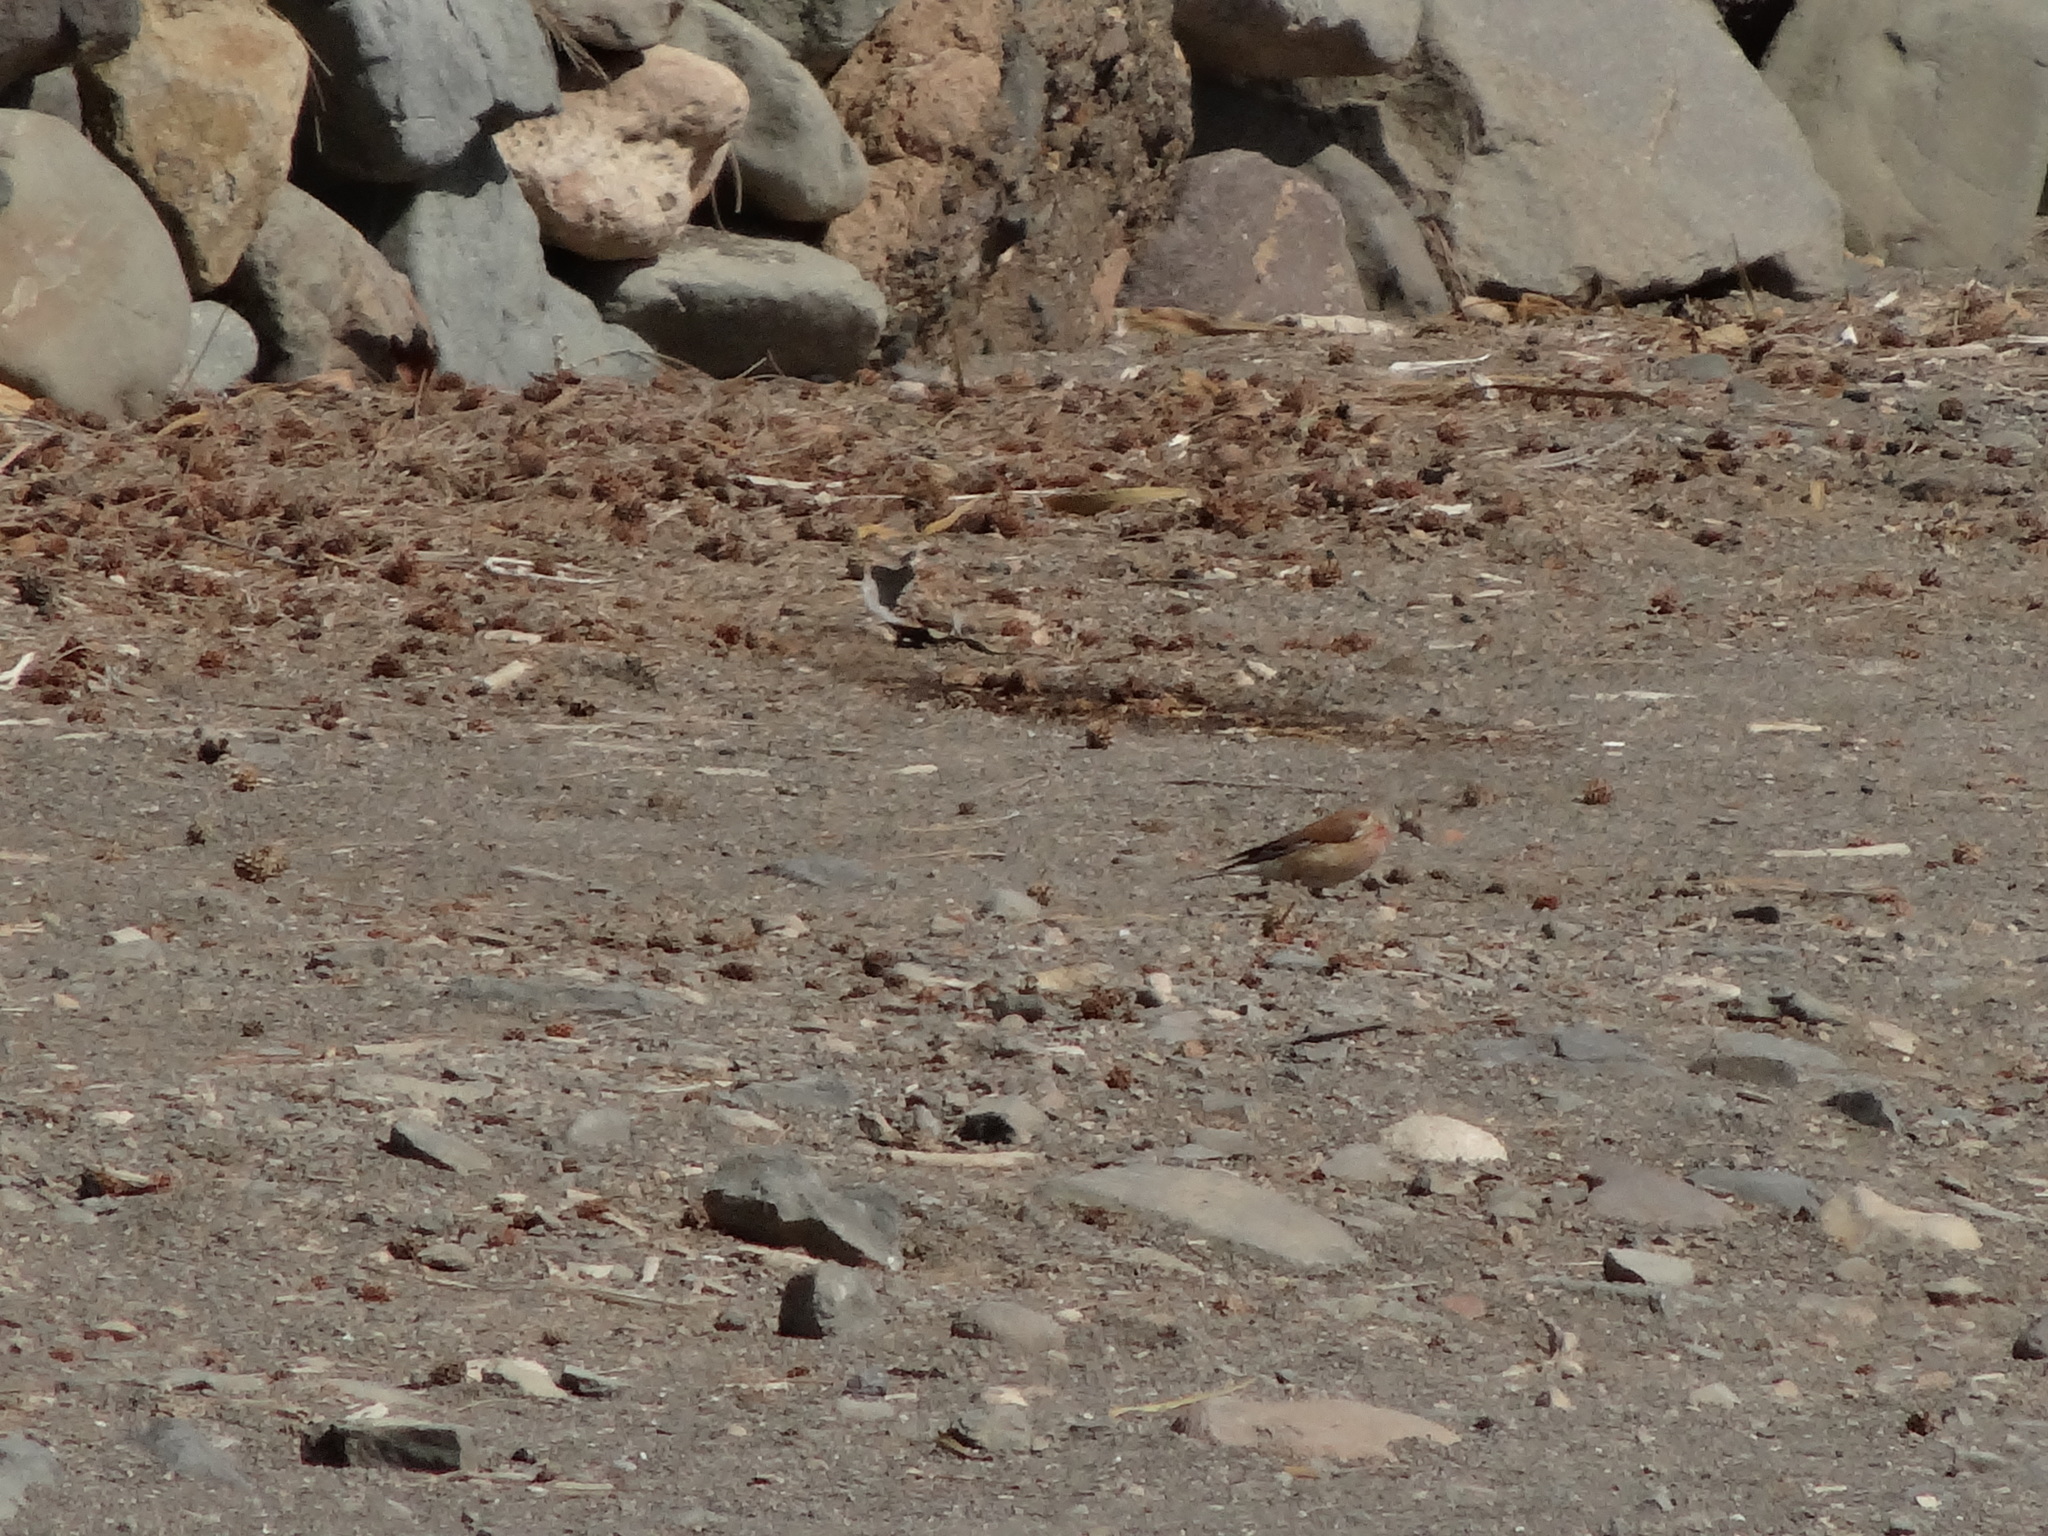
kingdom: Animalia
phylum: Chordata
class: Aves
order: Passeriformes
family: Fringillidae
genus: Linaria
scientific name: Linaria cannabina
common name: Common linnet
